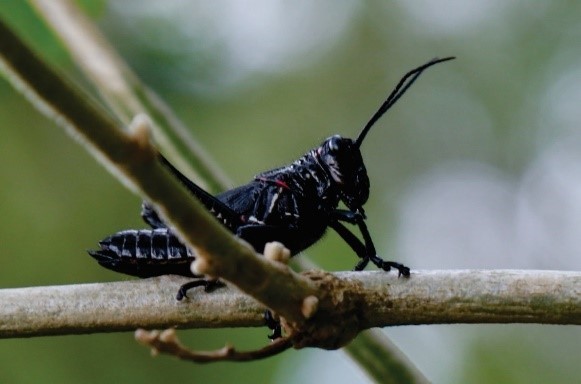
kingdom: Animalia
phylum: Arthropoda
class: Insecta
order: Orthoptera
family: Romaleidae
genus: Chromacris
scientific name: Chromacris speciosa
